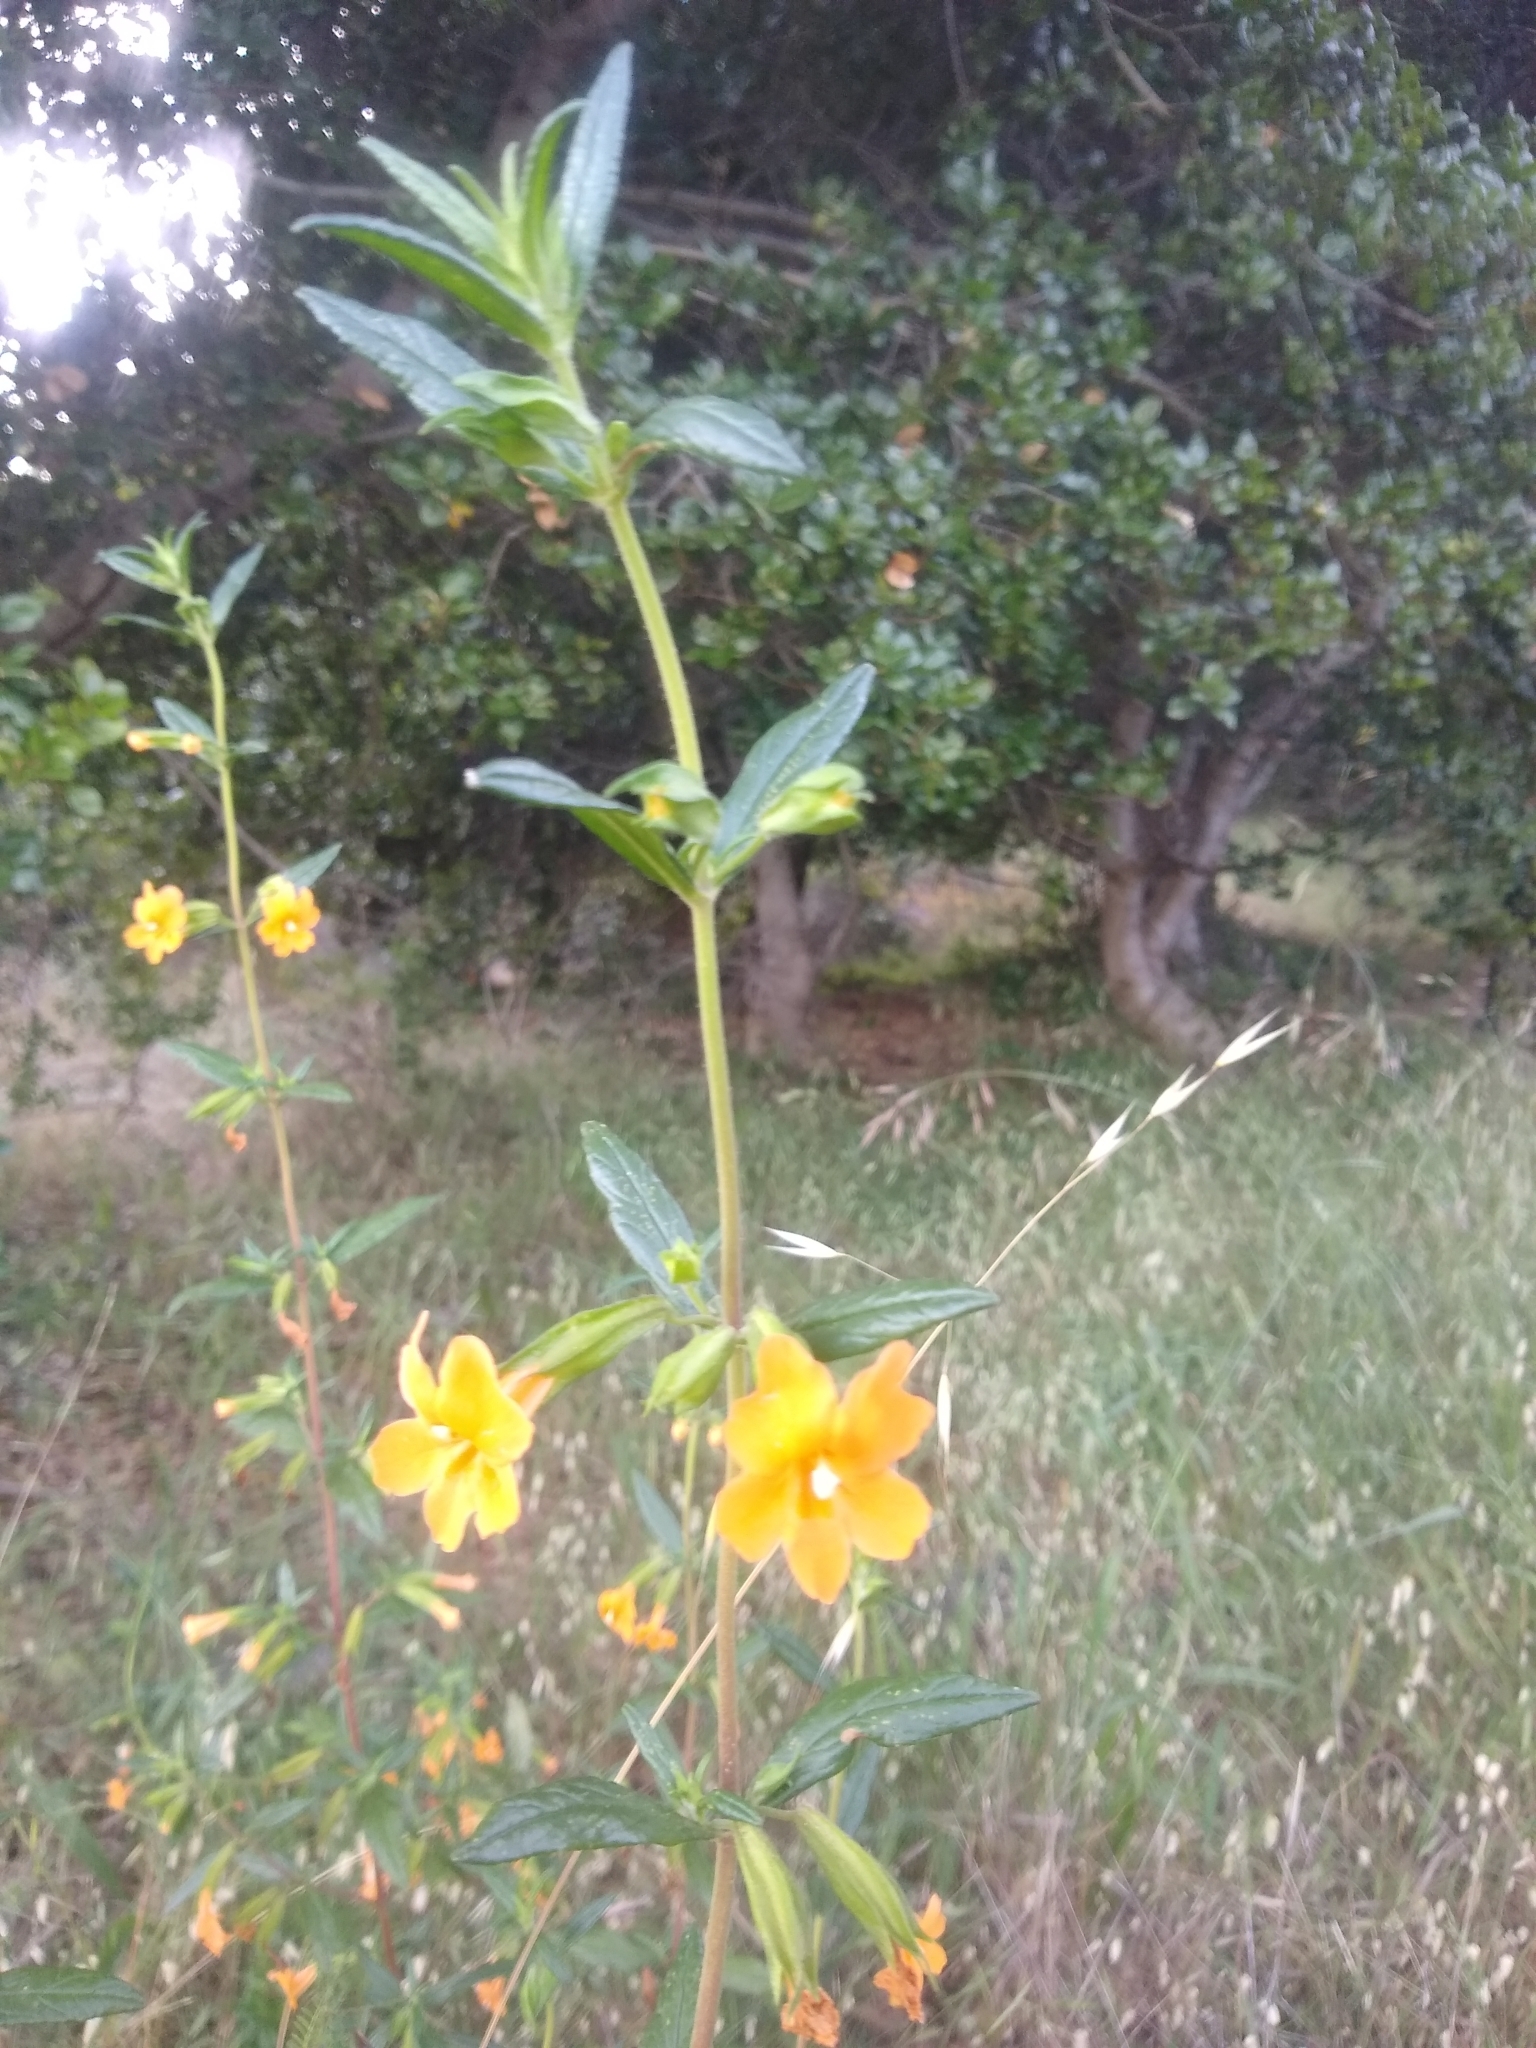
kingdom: Plantae
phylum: Tracheophyta
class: Magnoliopsida
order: Lamiales
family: Phrymaceae
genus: Diplacus
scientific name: Diplacus aurantiacus
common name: Bush monkey-flower
